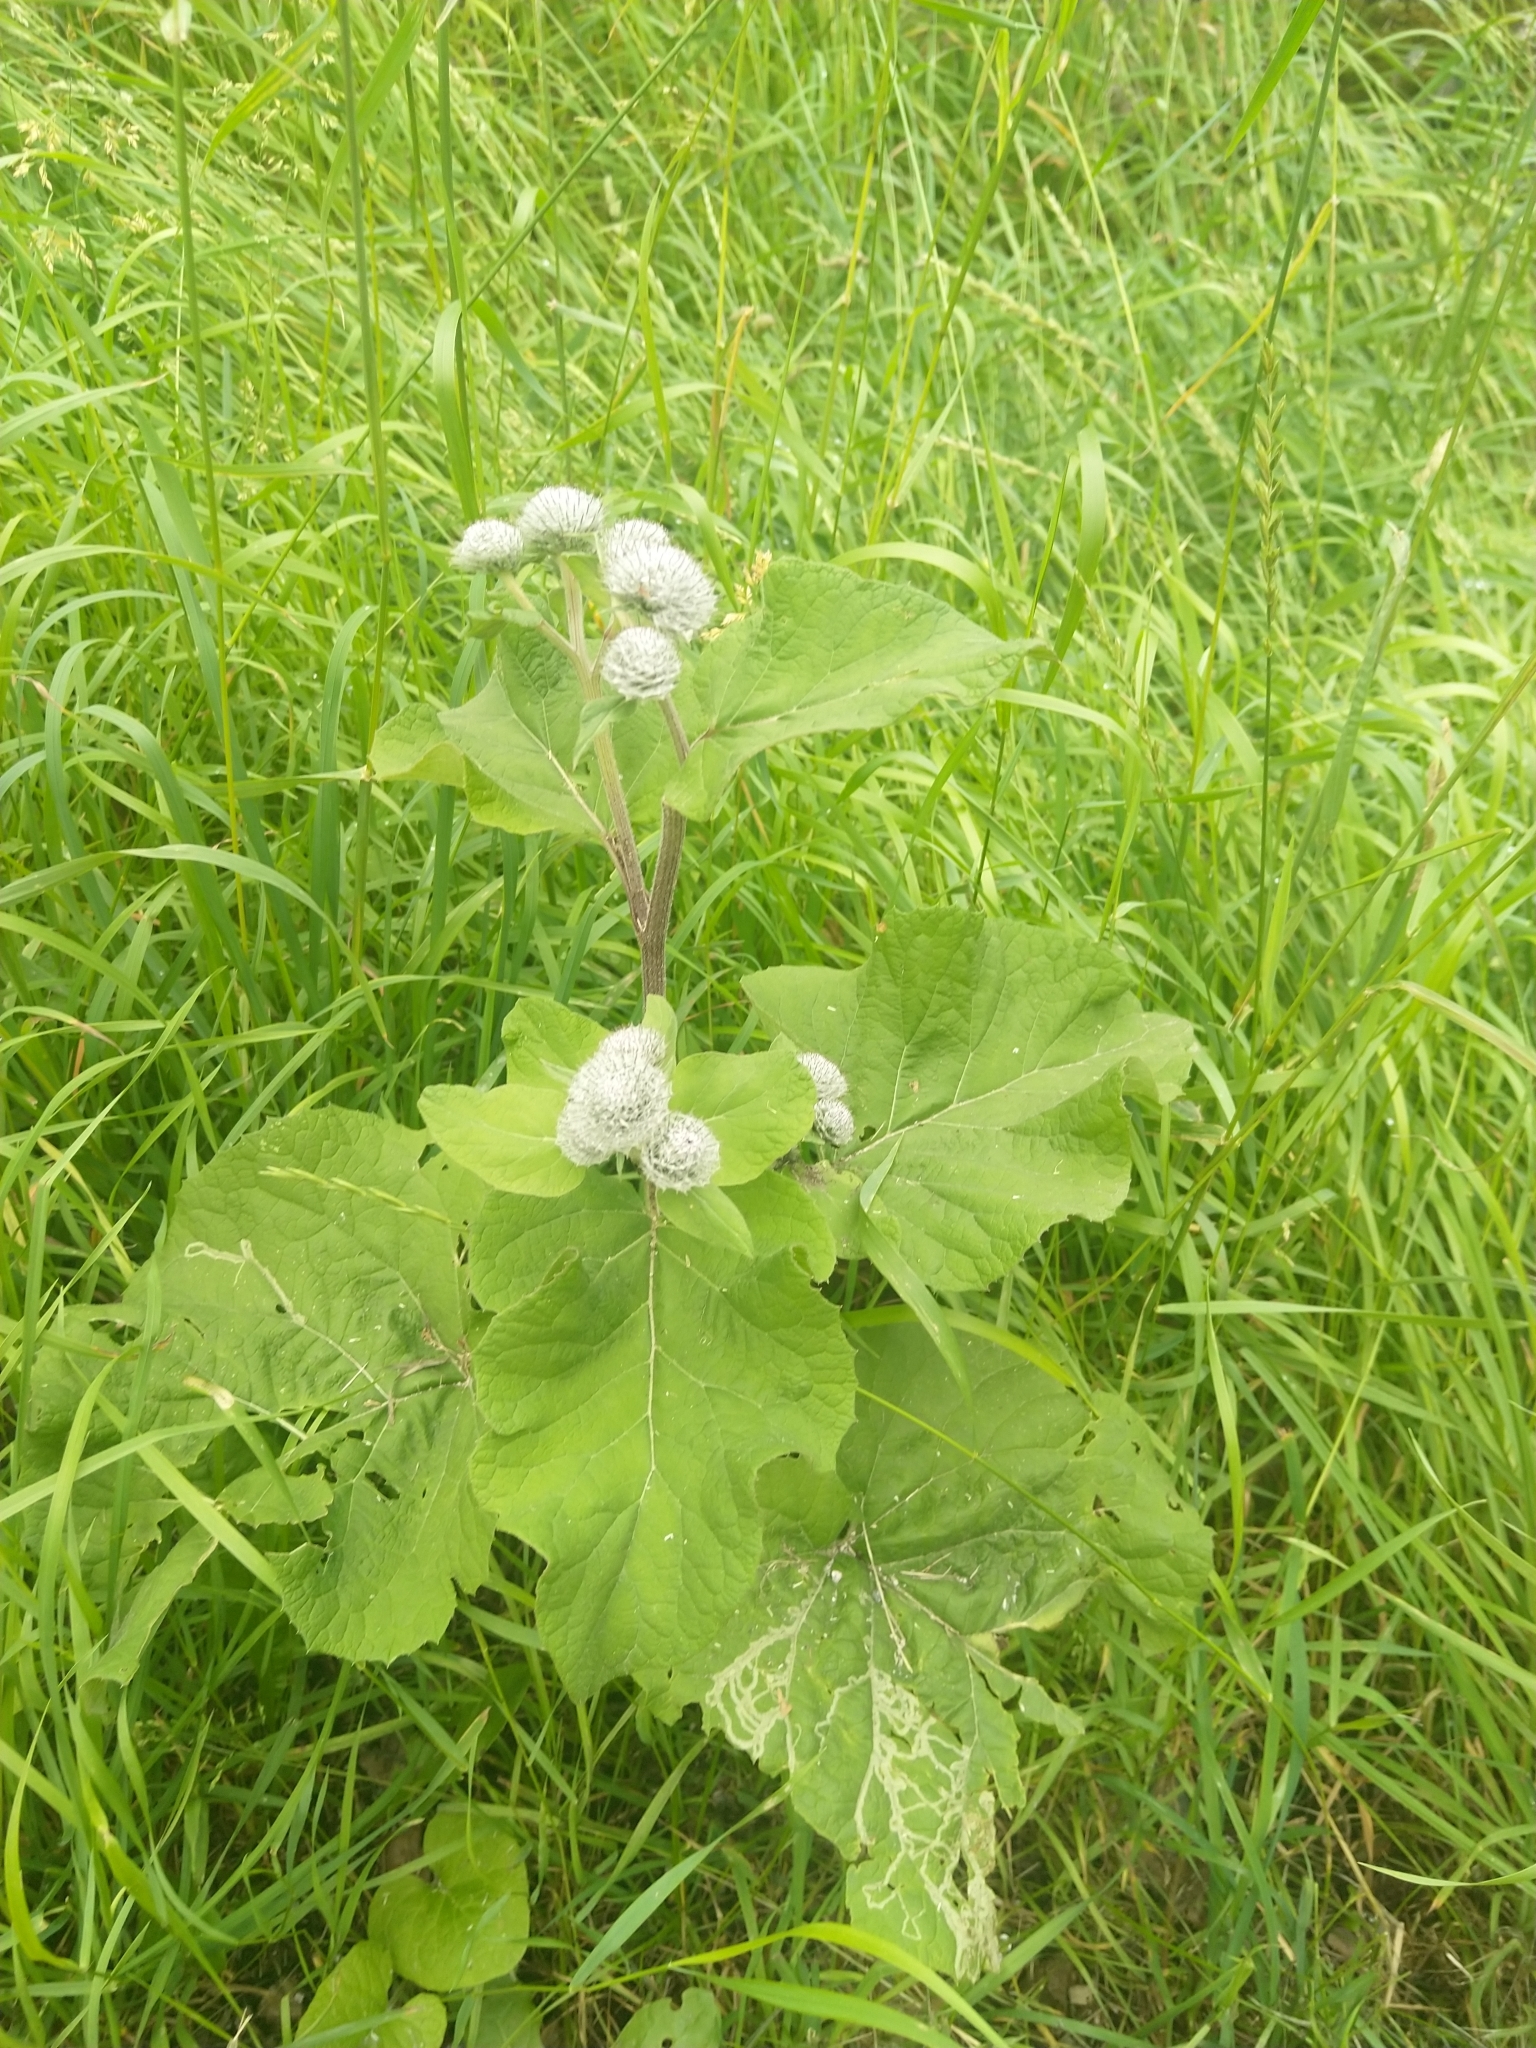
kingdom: Plantae
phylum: Tracheophyta
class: Magnoliopsida
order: Asterales
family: Asteraceae
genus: Arctium
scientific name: Arctium tomentosum
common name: Woolly burdock
